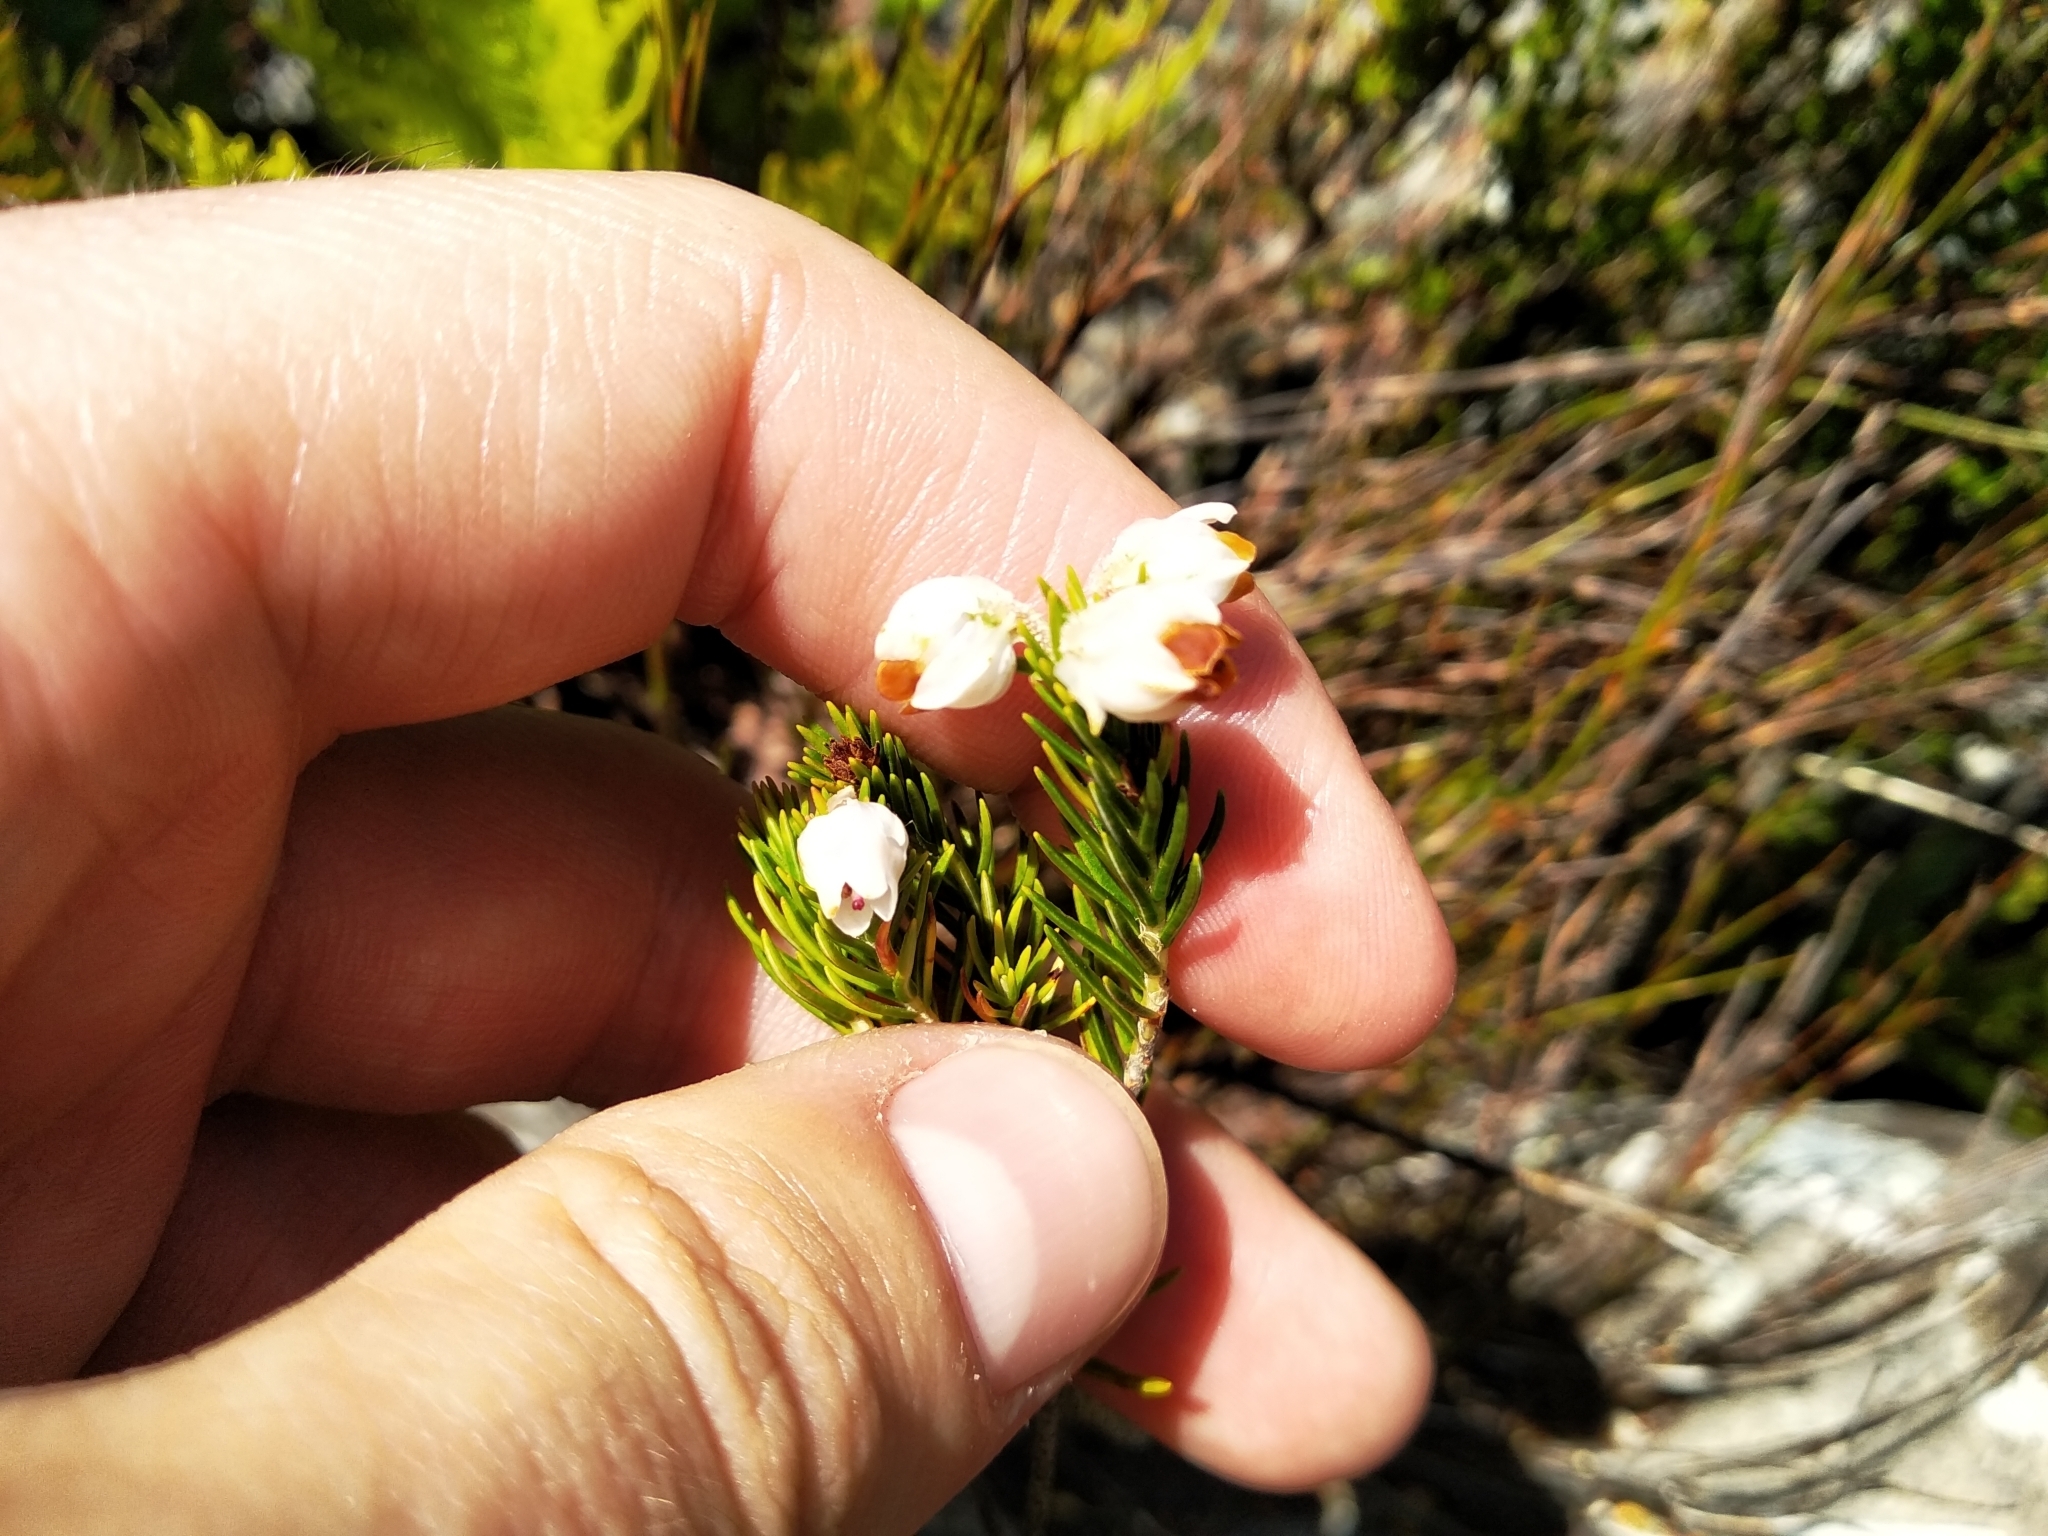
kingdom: Plantae
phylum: Tracheophyta
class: Magnoliopsida
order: Ericales
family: Ericaceae
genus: Erica
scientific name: Erica triflora
